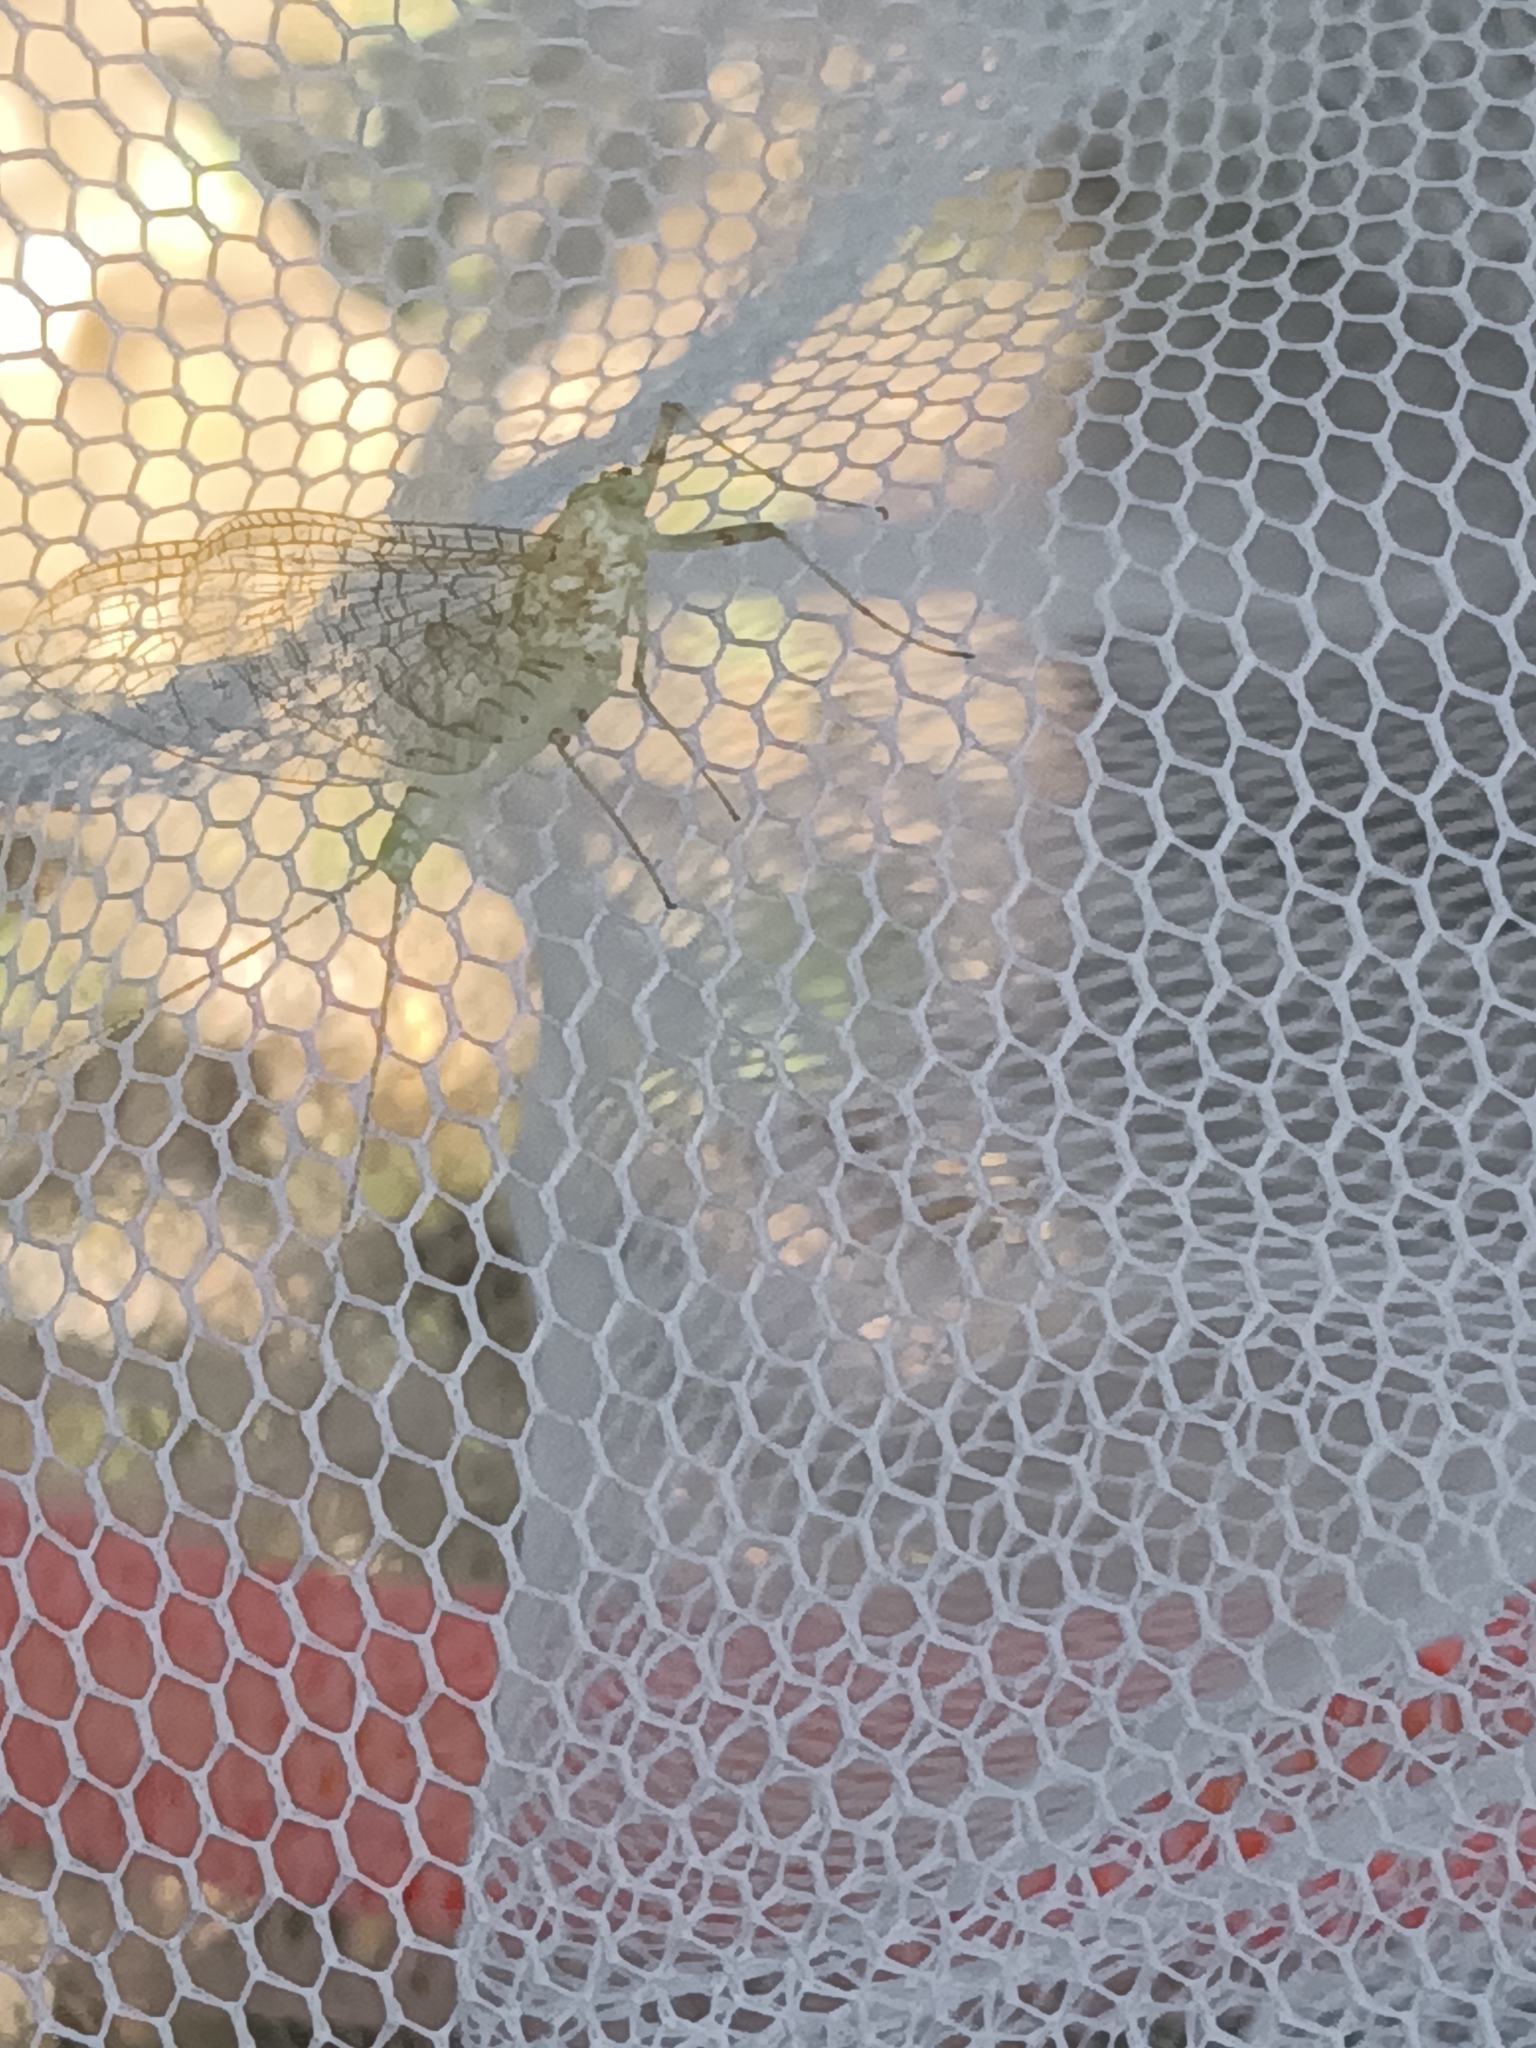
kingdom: Animalia
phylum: Arthropoda
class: Insecta
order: Ephemeroptera
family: Heptageniidae
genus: Maccaffertium
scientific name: Maccaffertium modestum
